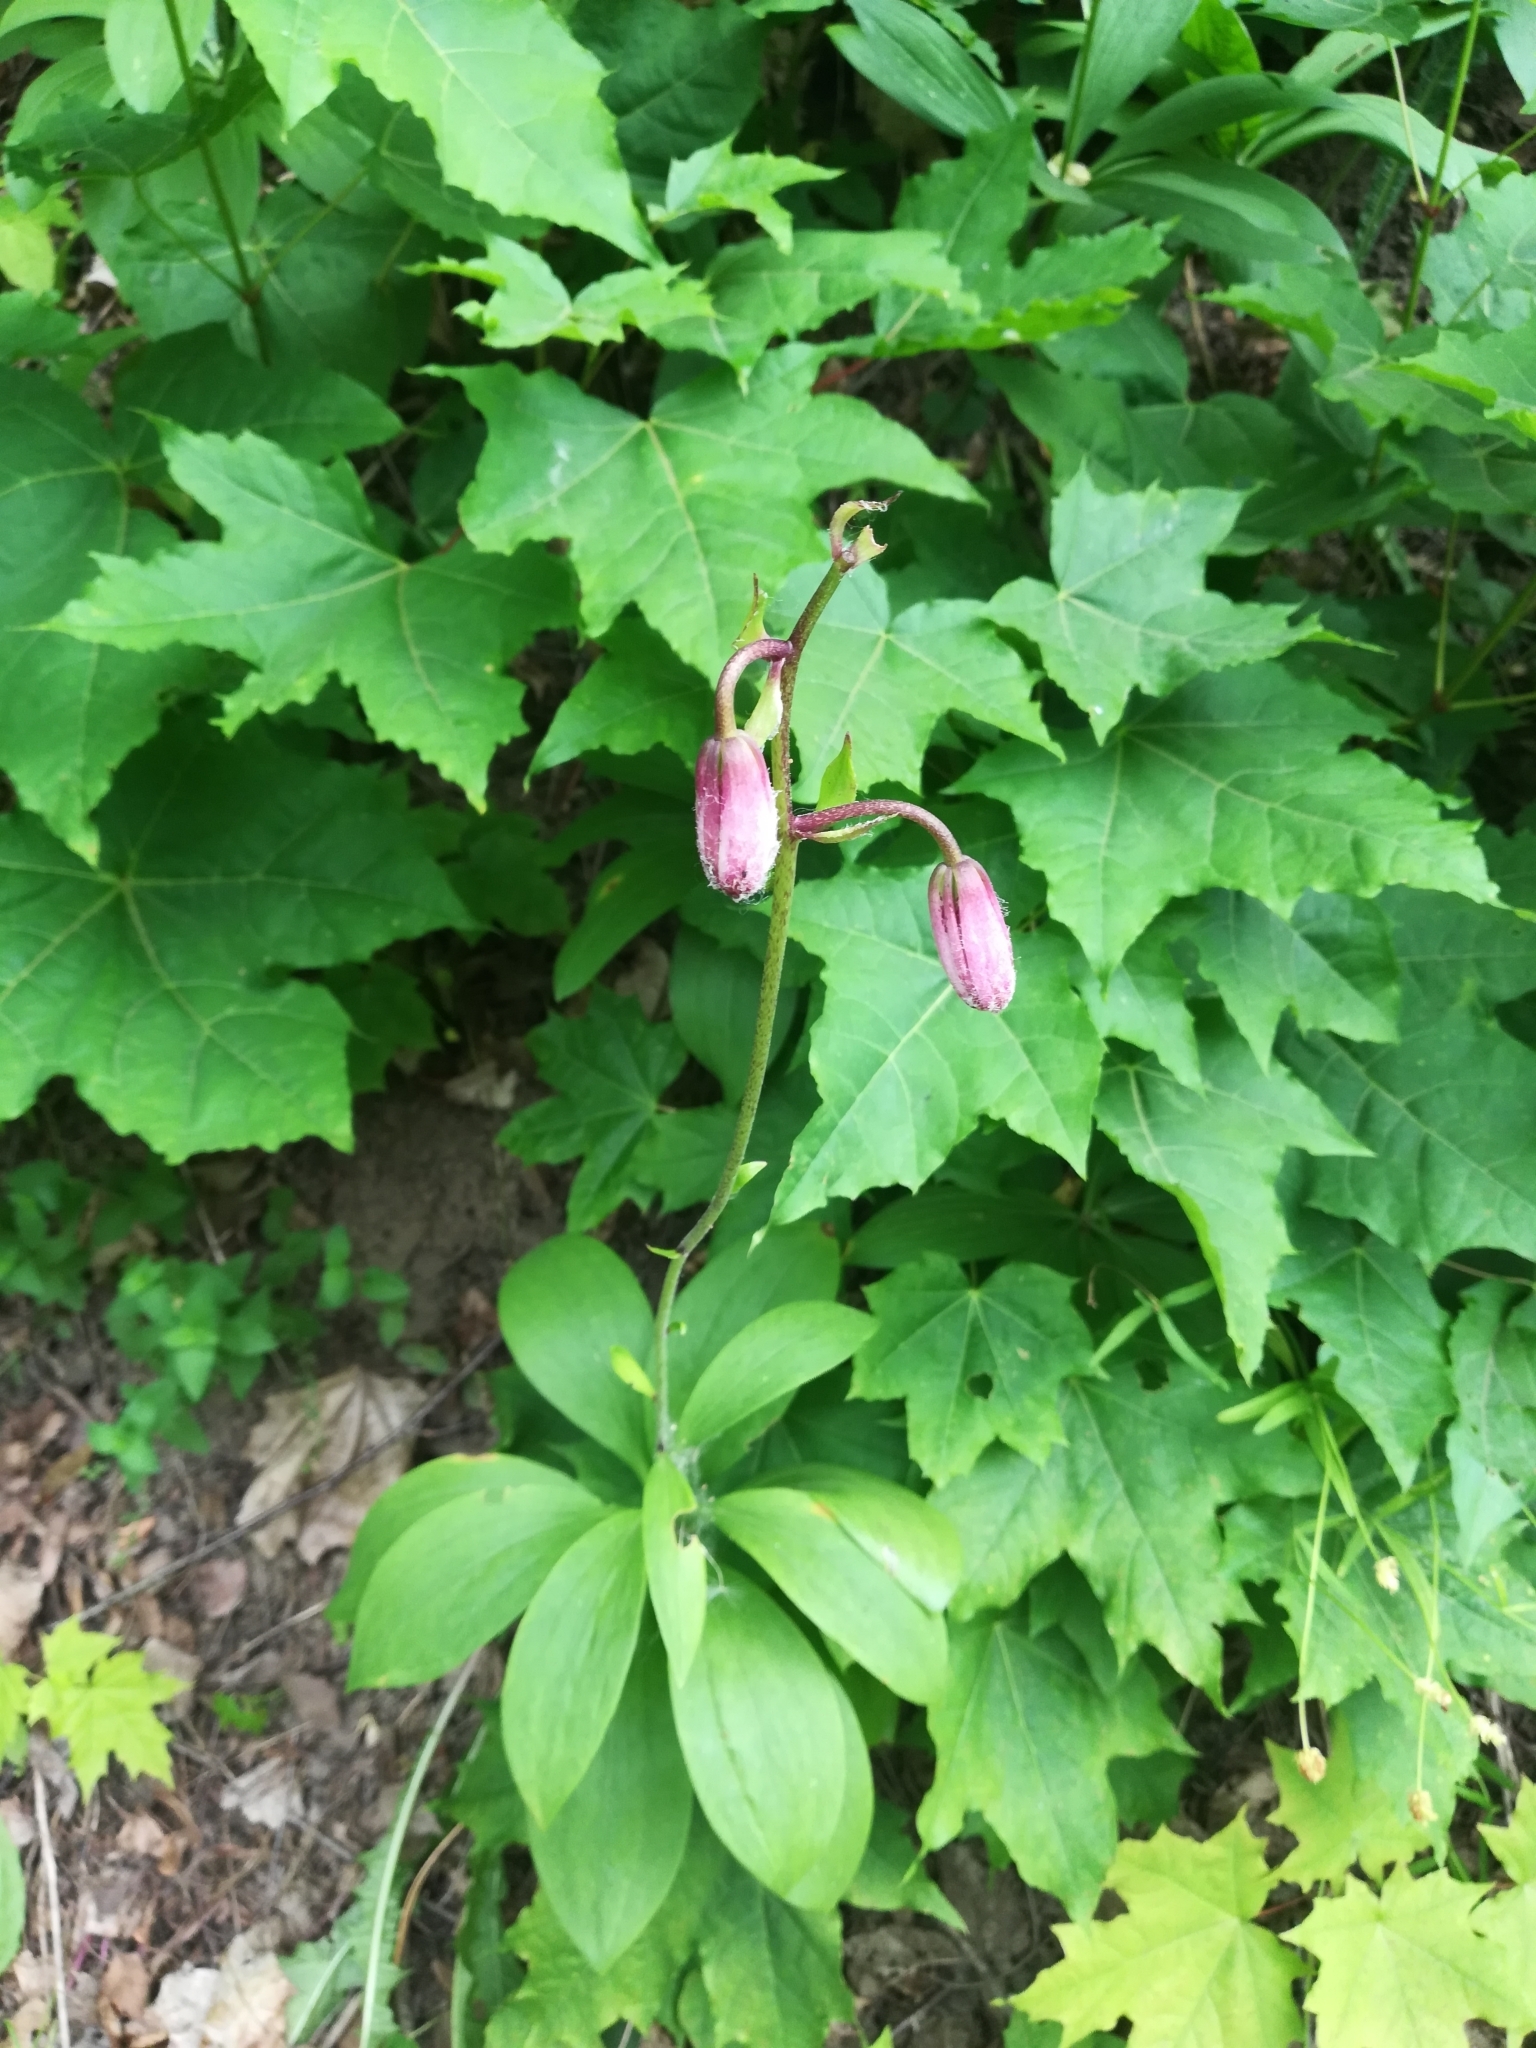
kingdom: Plantae
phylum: Tracheophyta
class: Liliopsida
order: Liliales
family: Liliaceae
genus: Lilium
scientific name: Lilium martagon
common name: Martagon lily
